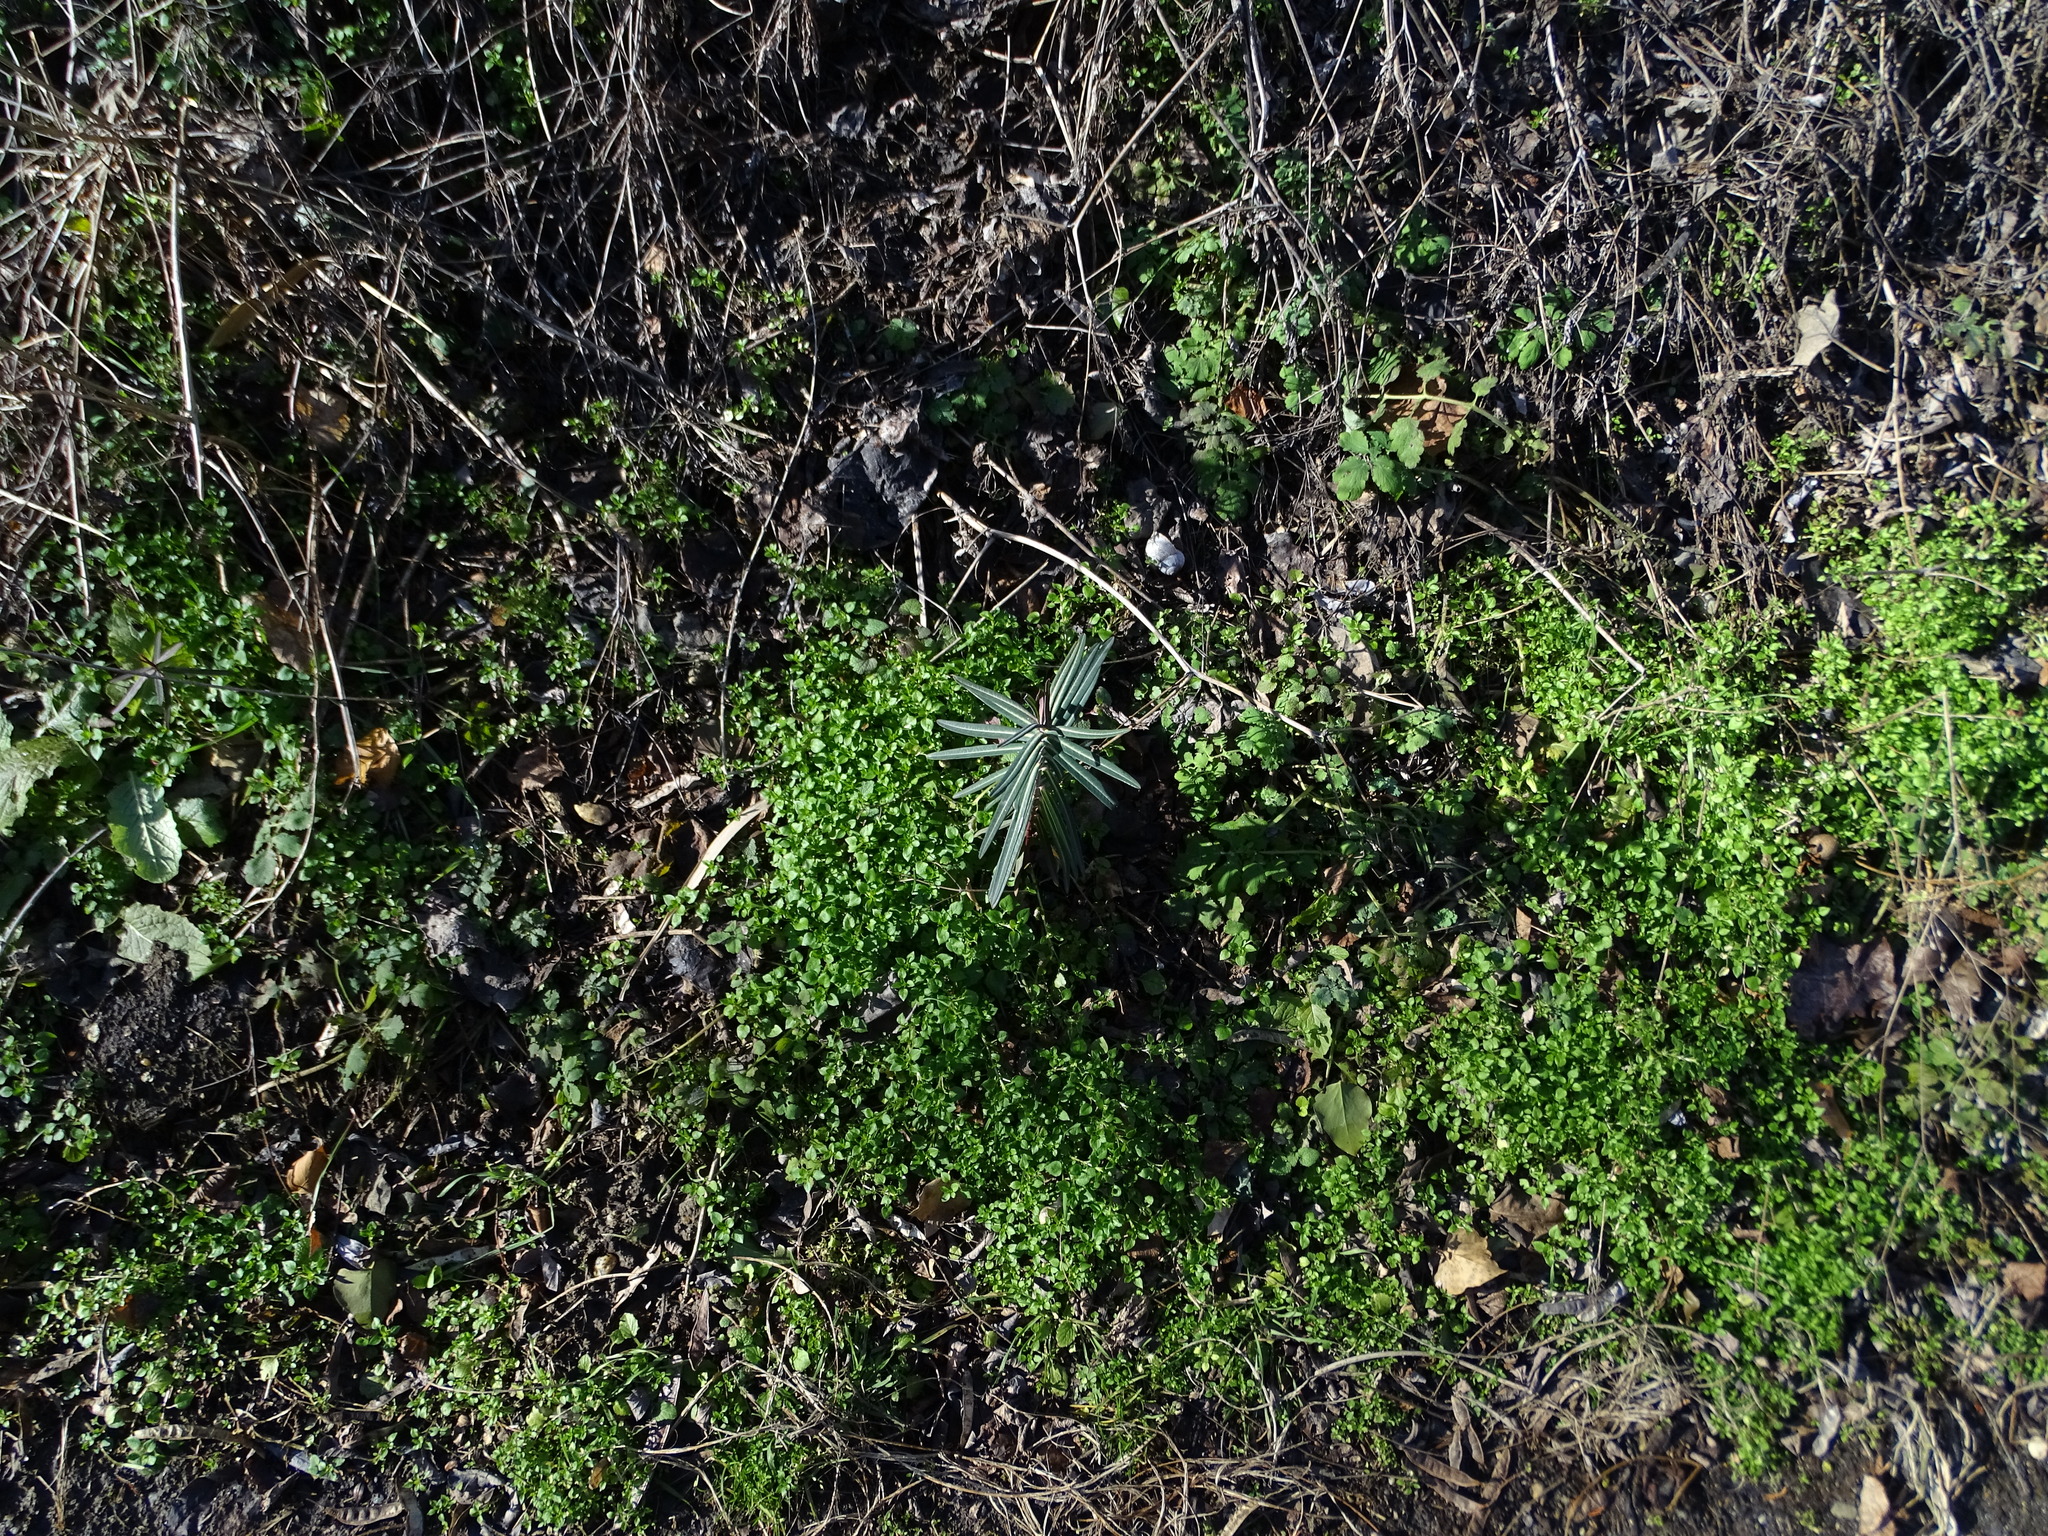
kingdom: Plantae
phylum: Tracheophyta
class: Magnoliopsida
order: Malpighiales
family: Euphorbiaceae
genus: Euphorbia
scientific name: Euphorbia lathyris
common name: Caper spurge
